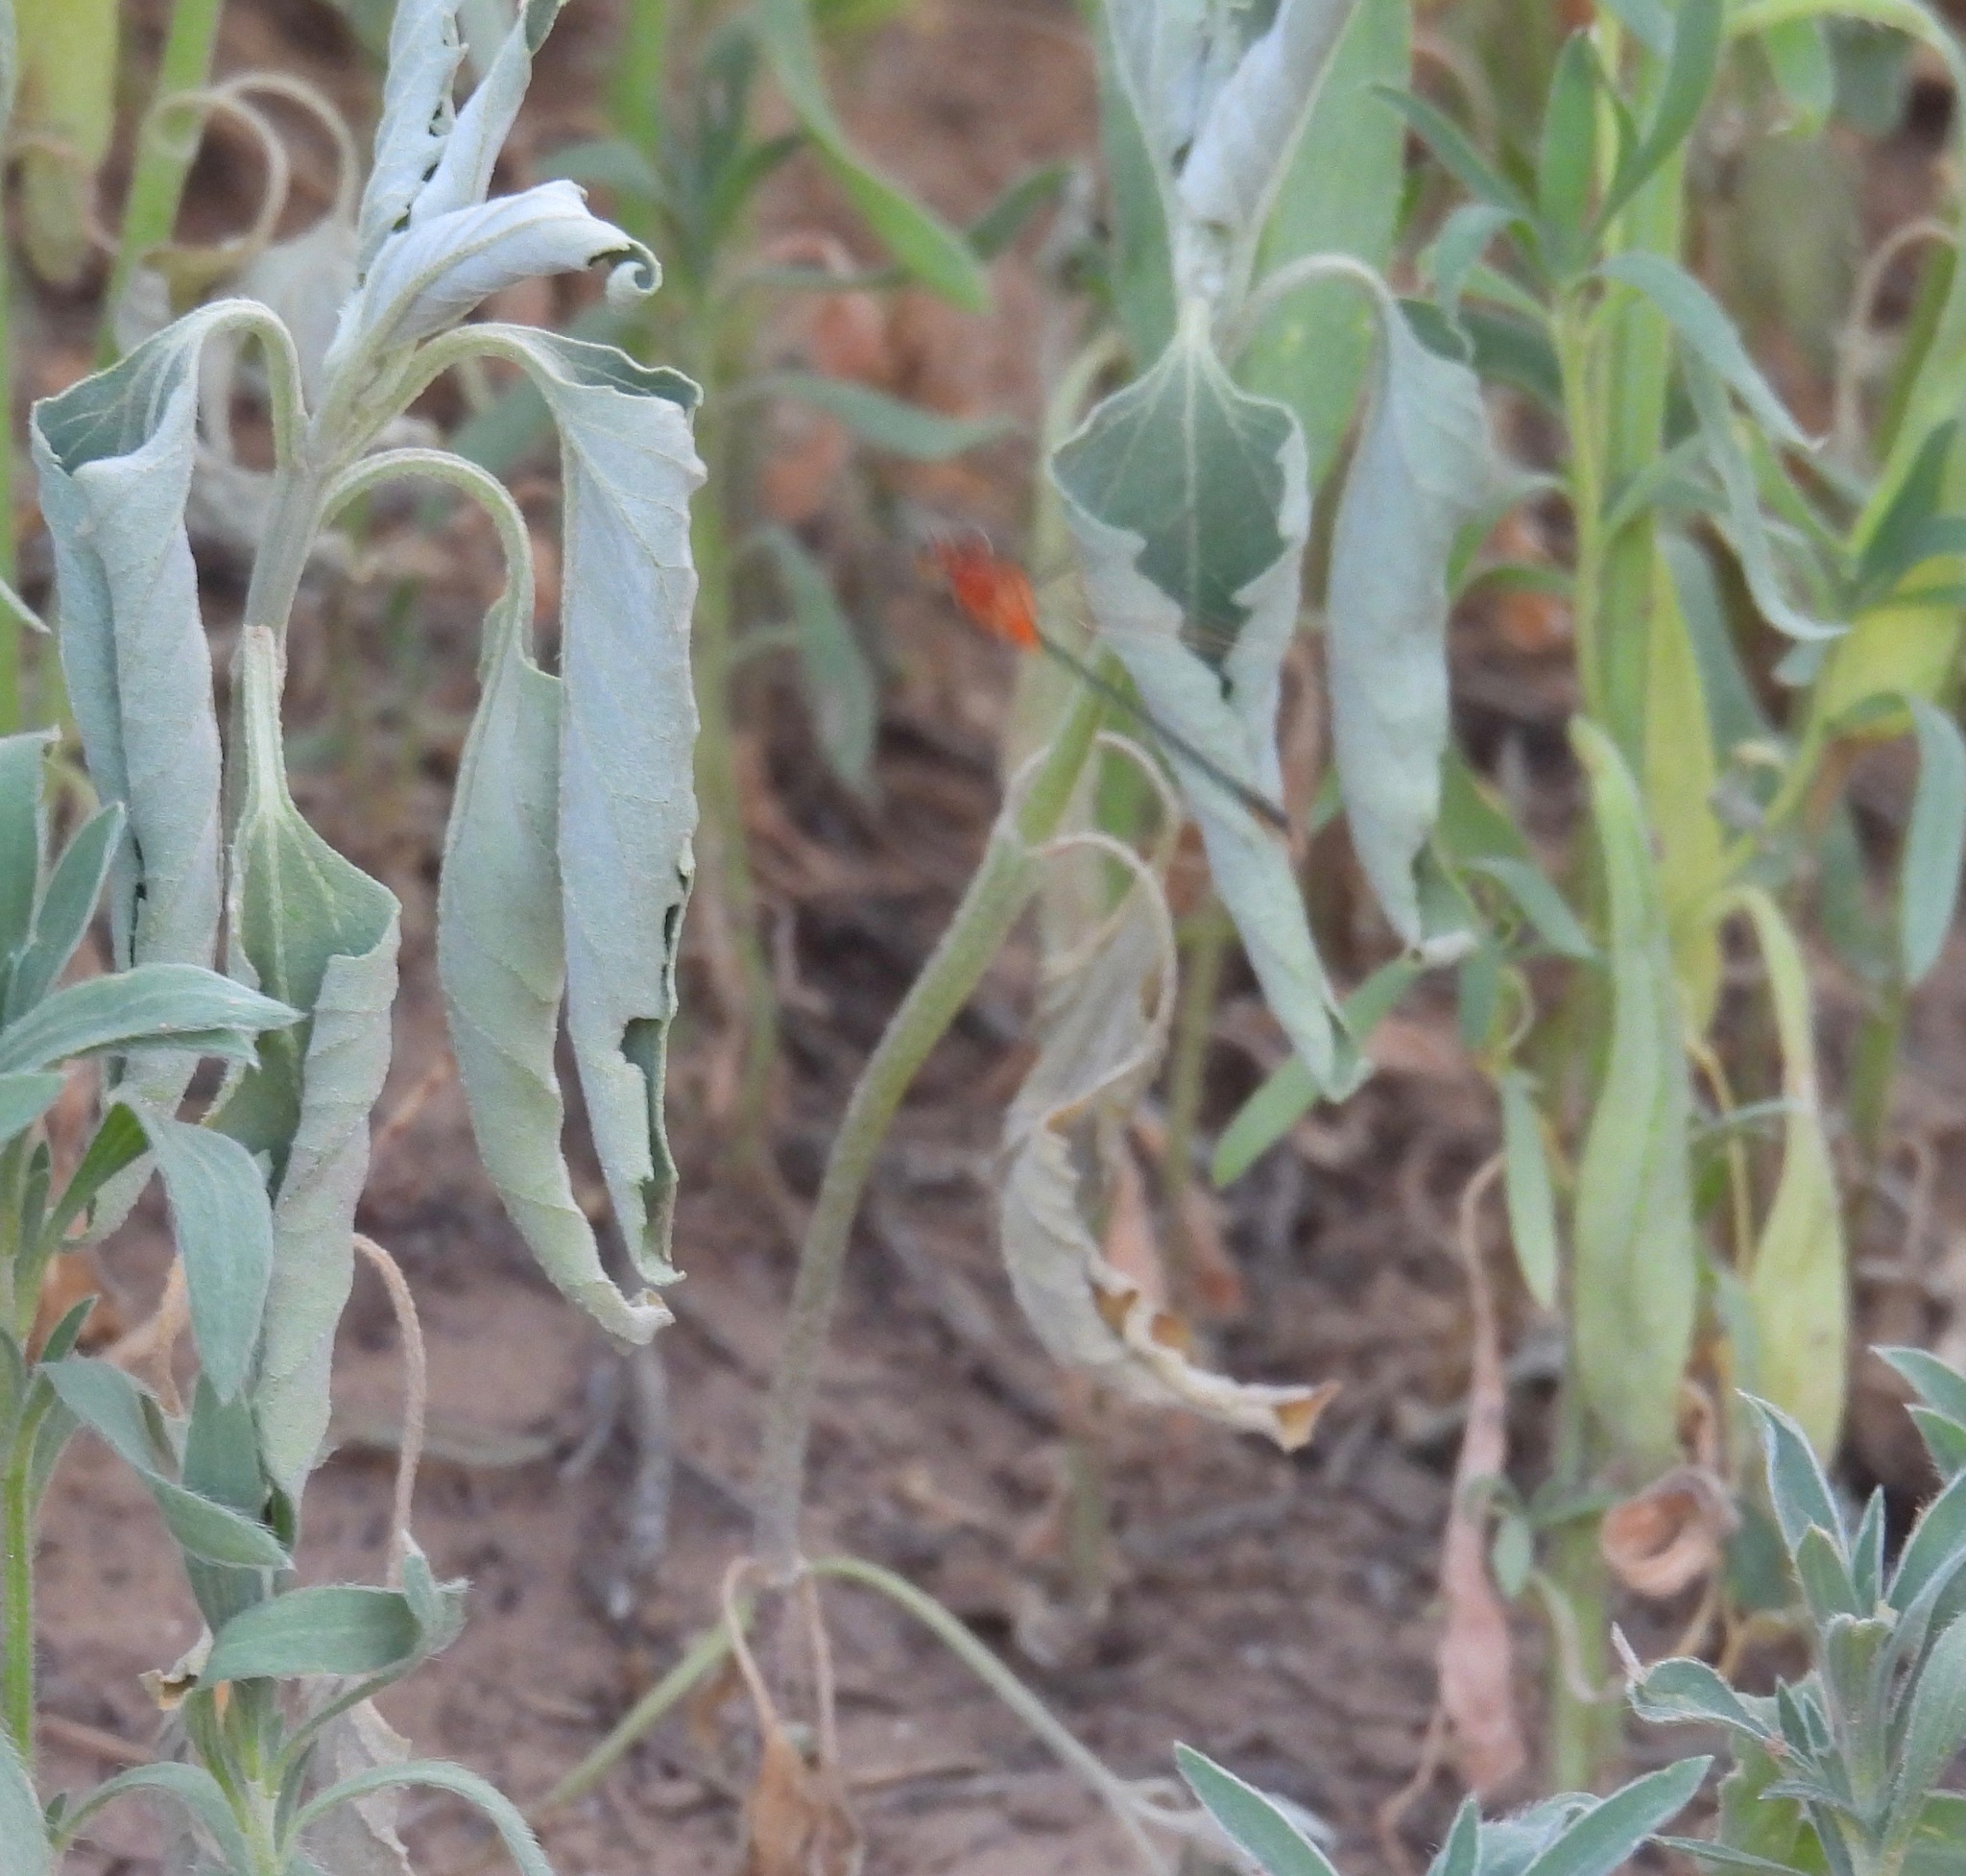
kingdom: Animalia
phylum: Arthropoda
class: Insecta
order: Odonata
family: Coenagrionidae
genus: Ischnura
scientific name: Ischnura ramburii
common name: Rambur's forktail
